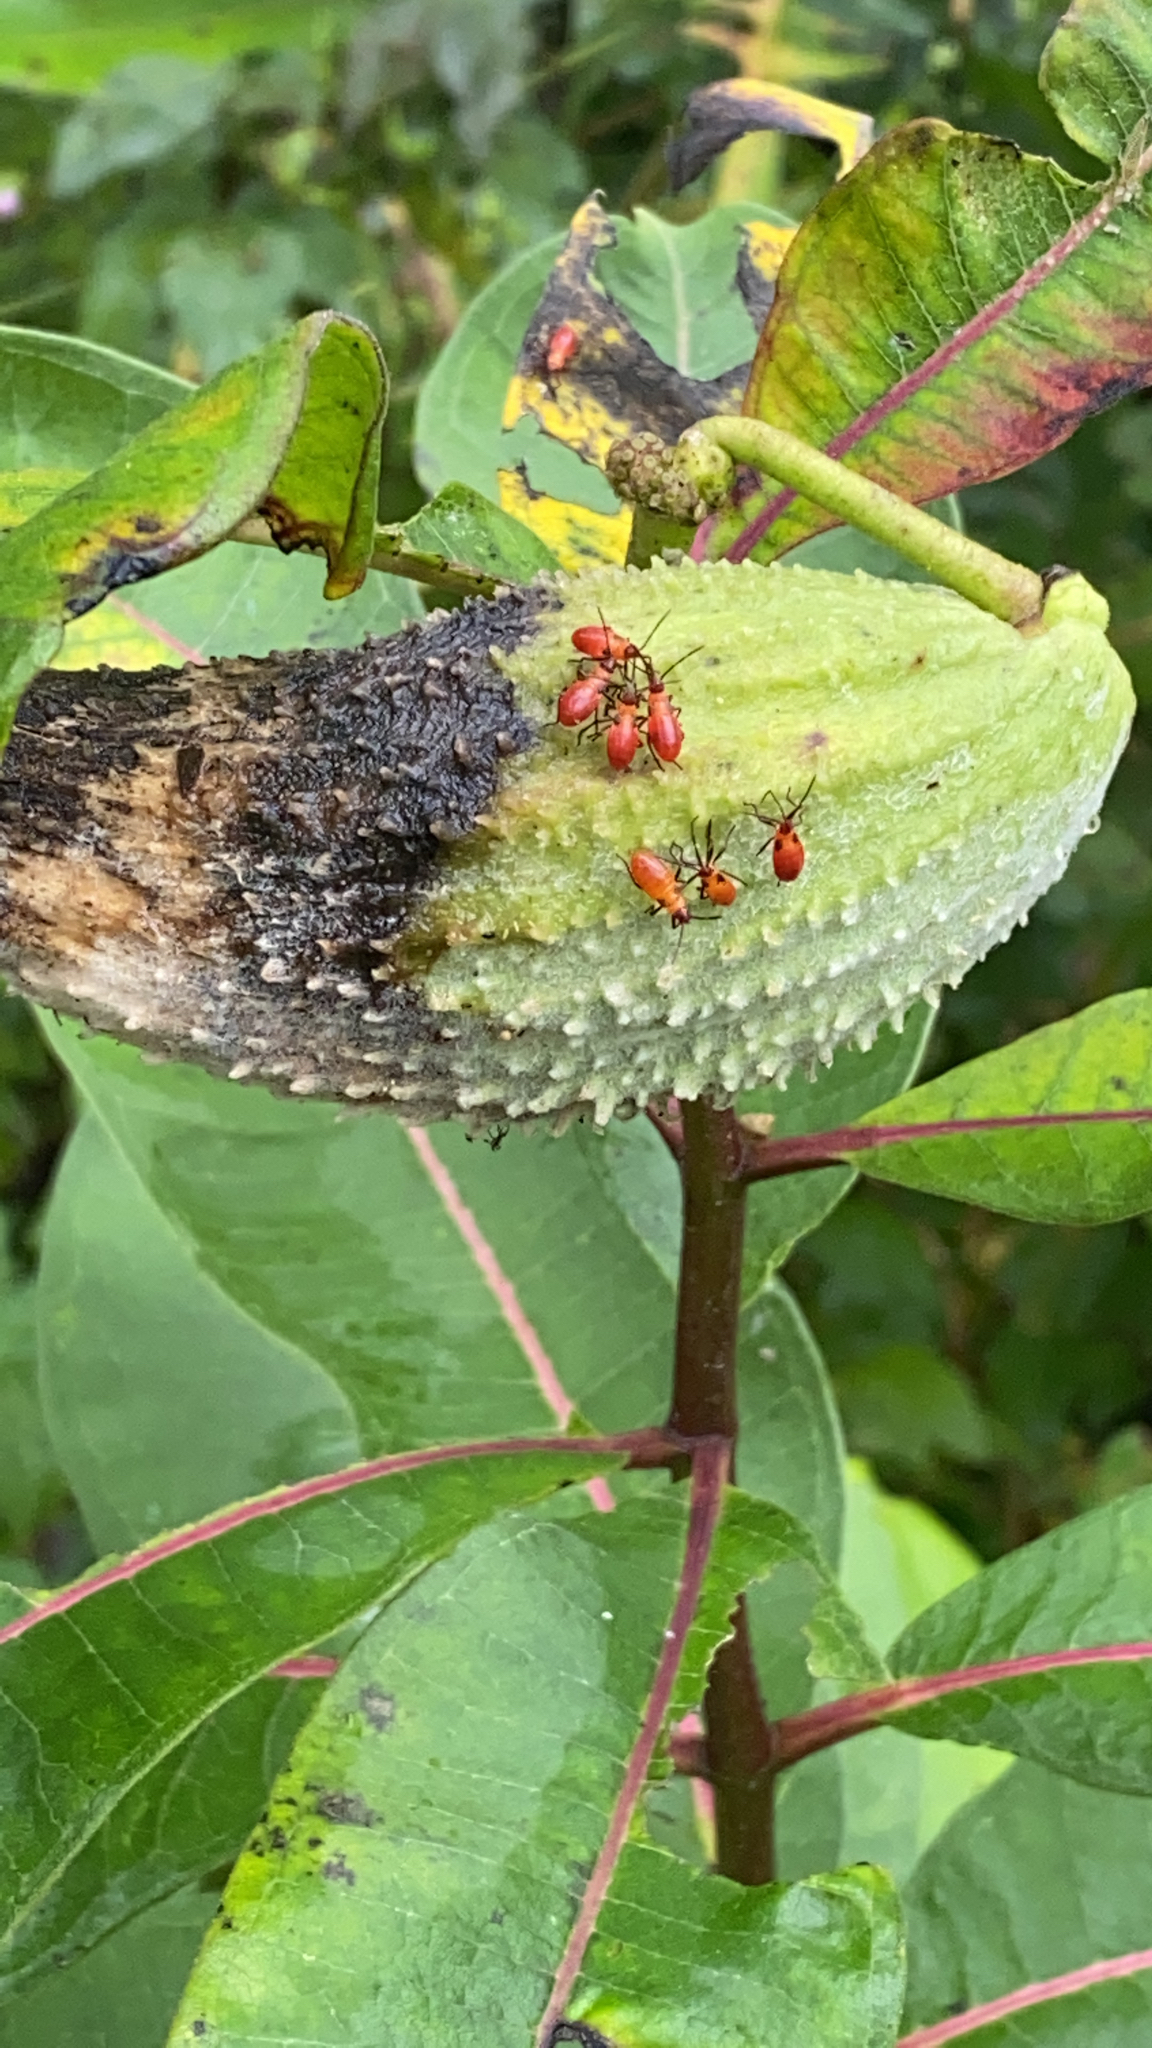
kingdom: Animalia
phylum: Arthropoda
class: Insecta
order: Hemiptera
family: Lygaeidae
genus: Oncopeltus
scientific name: Oncopeltus fasciatus
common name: Large milkweed bug
